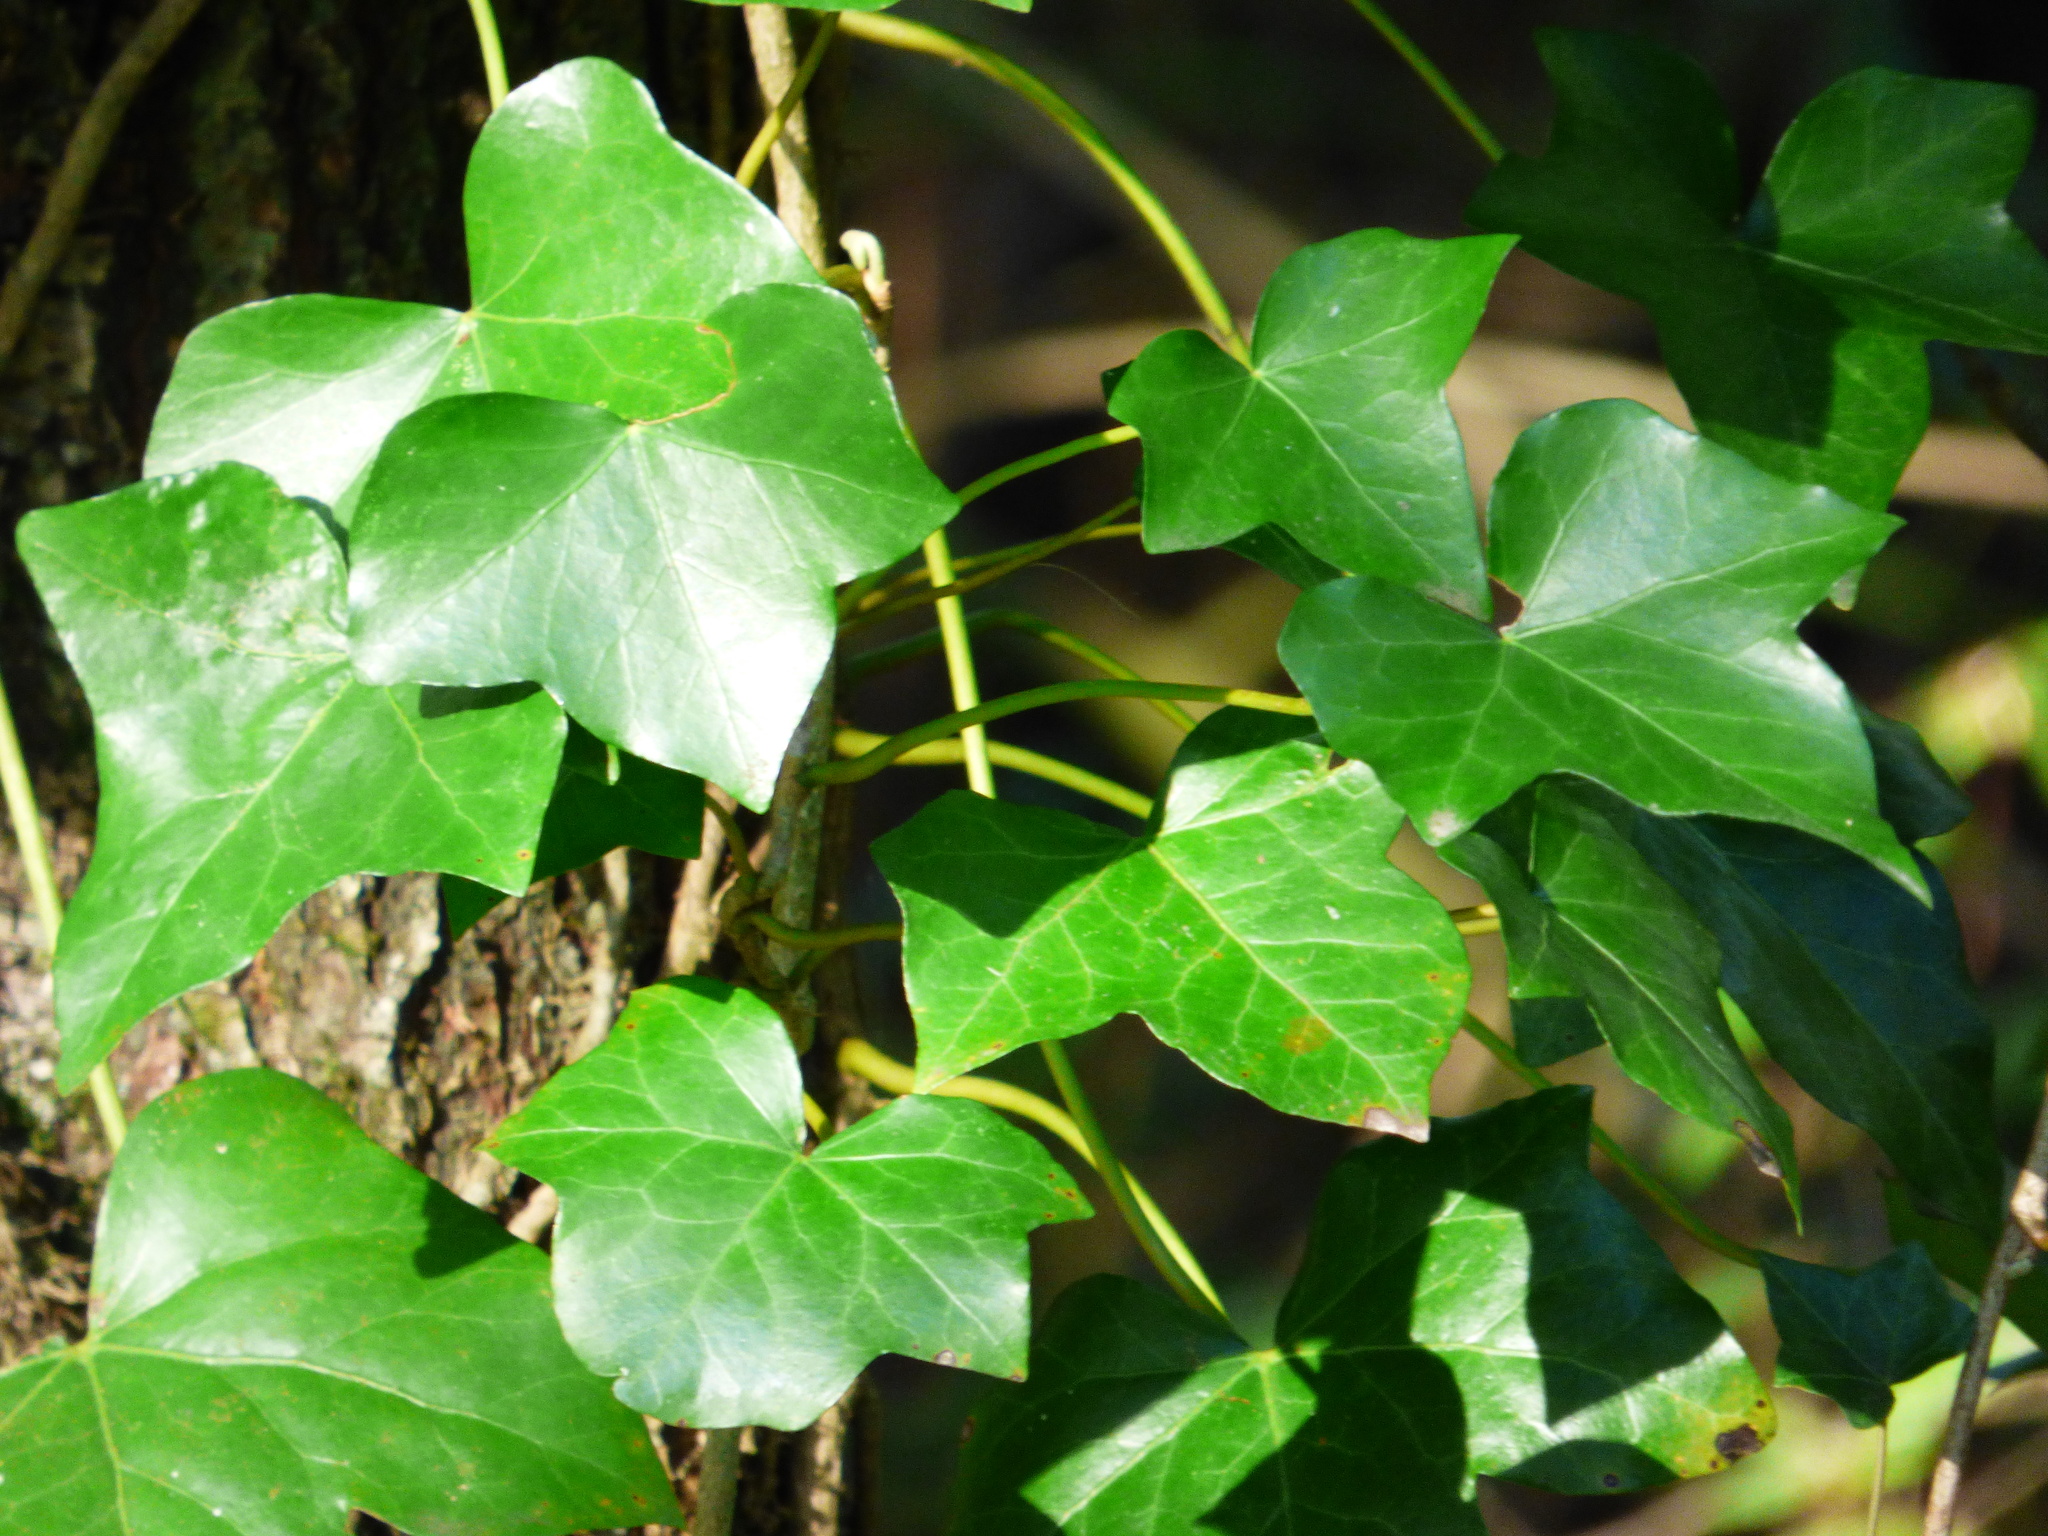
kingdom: Plantae
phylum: Tracheophyta
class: Magnoliopsida
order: Apiales
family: Araliaceae
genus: Hedera
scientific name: Hedera helix
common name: Ivy
